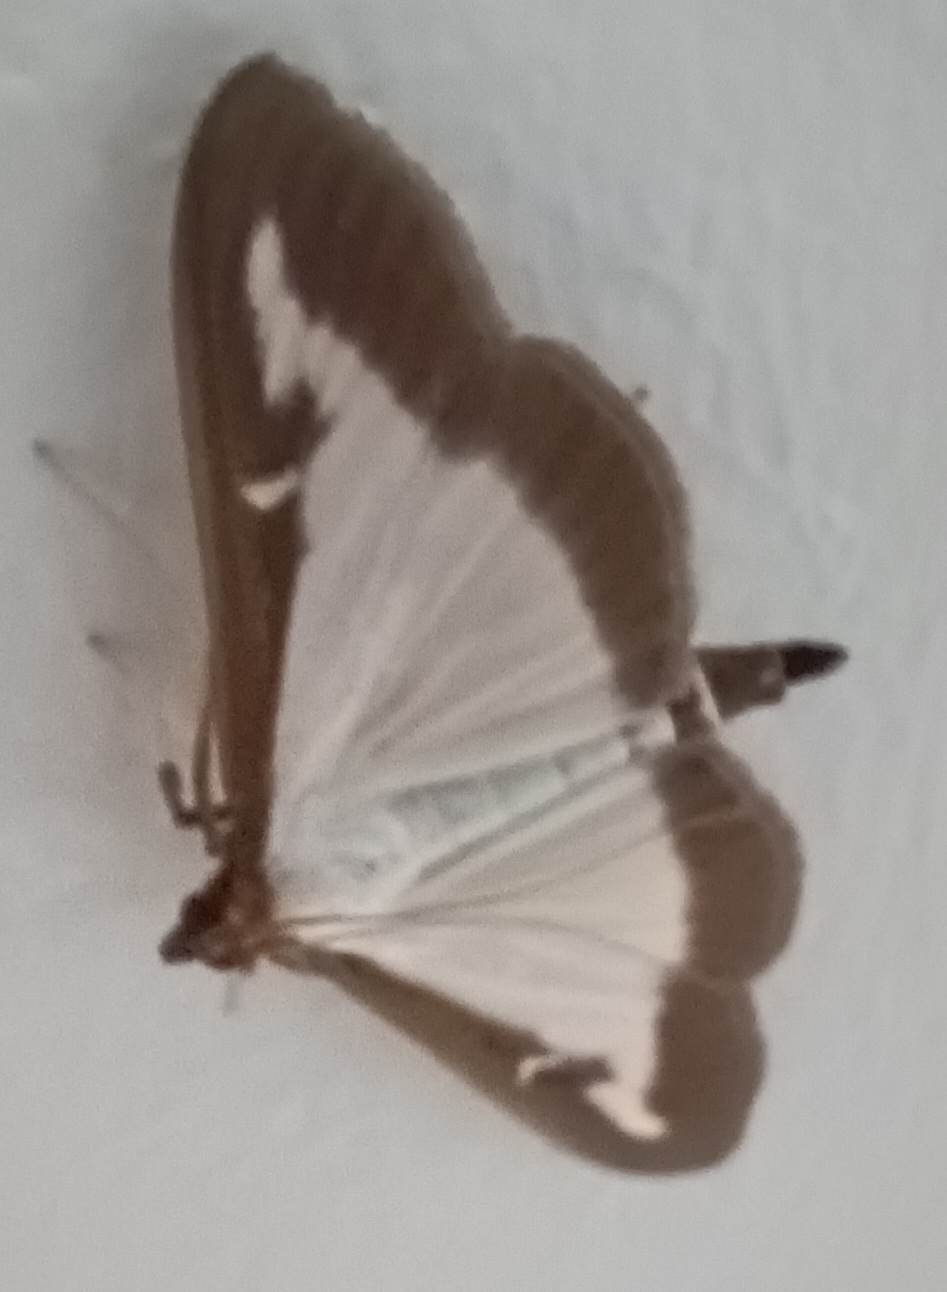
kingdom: Animalia
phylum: Arthropoda
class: Insecta
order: Lepidoptera
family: Crambidae
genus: Cydalima
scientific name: Cydalima perspectalis
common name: Box tree moth
